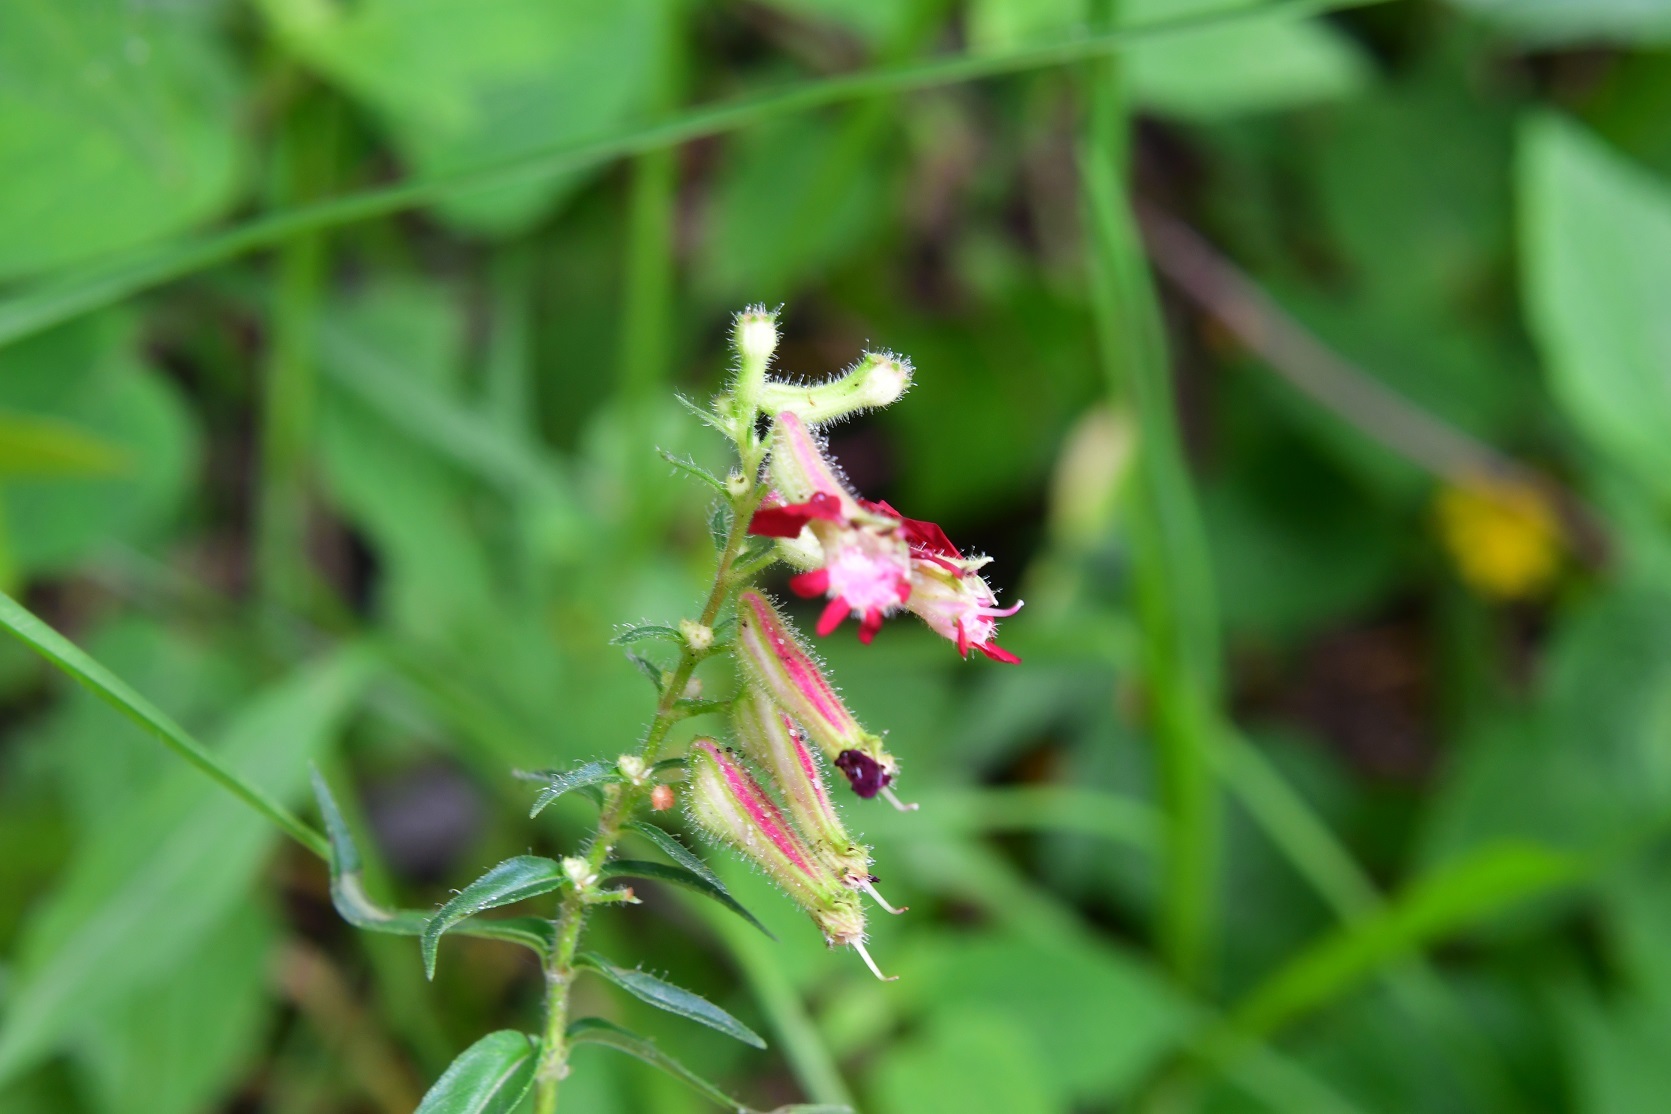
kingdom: Plantae
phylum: Tracheophyta
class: Magnoliopsida
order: Myrtales
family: Lythraceae
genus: Cuphea
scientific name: Cuphea hookeriana
